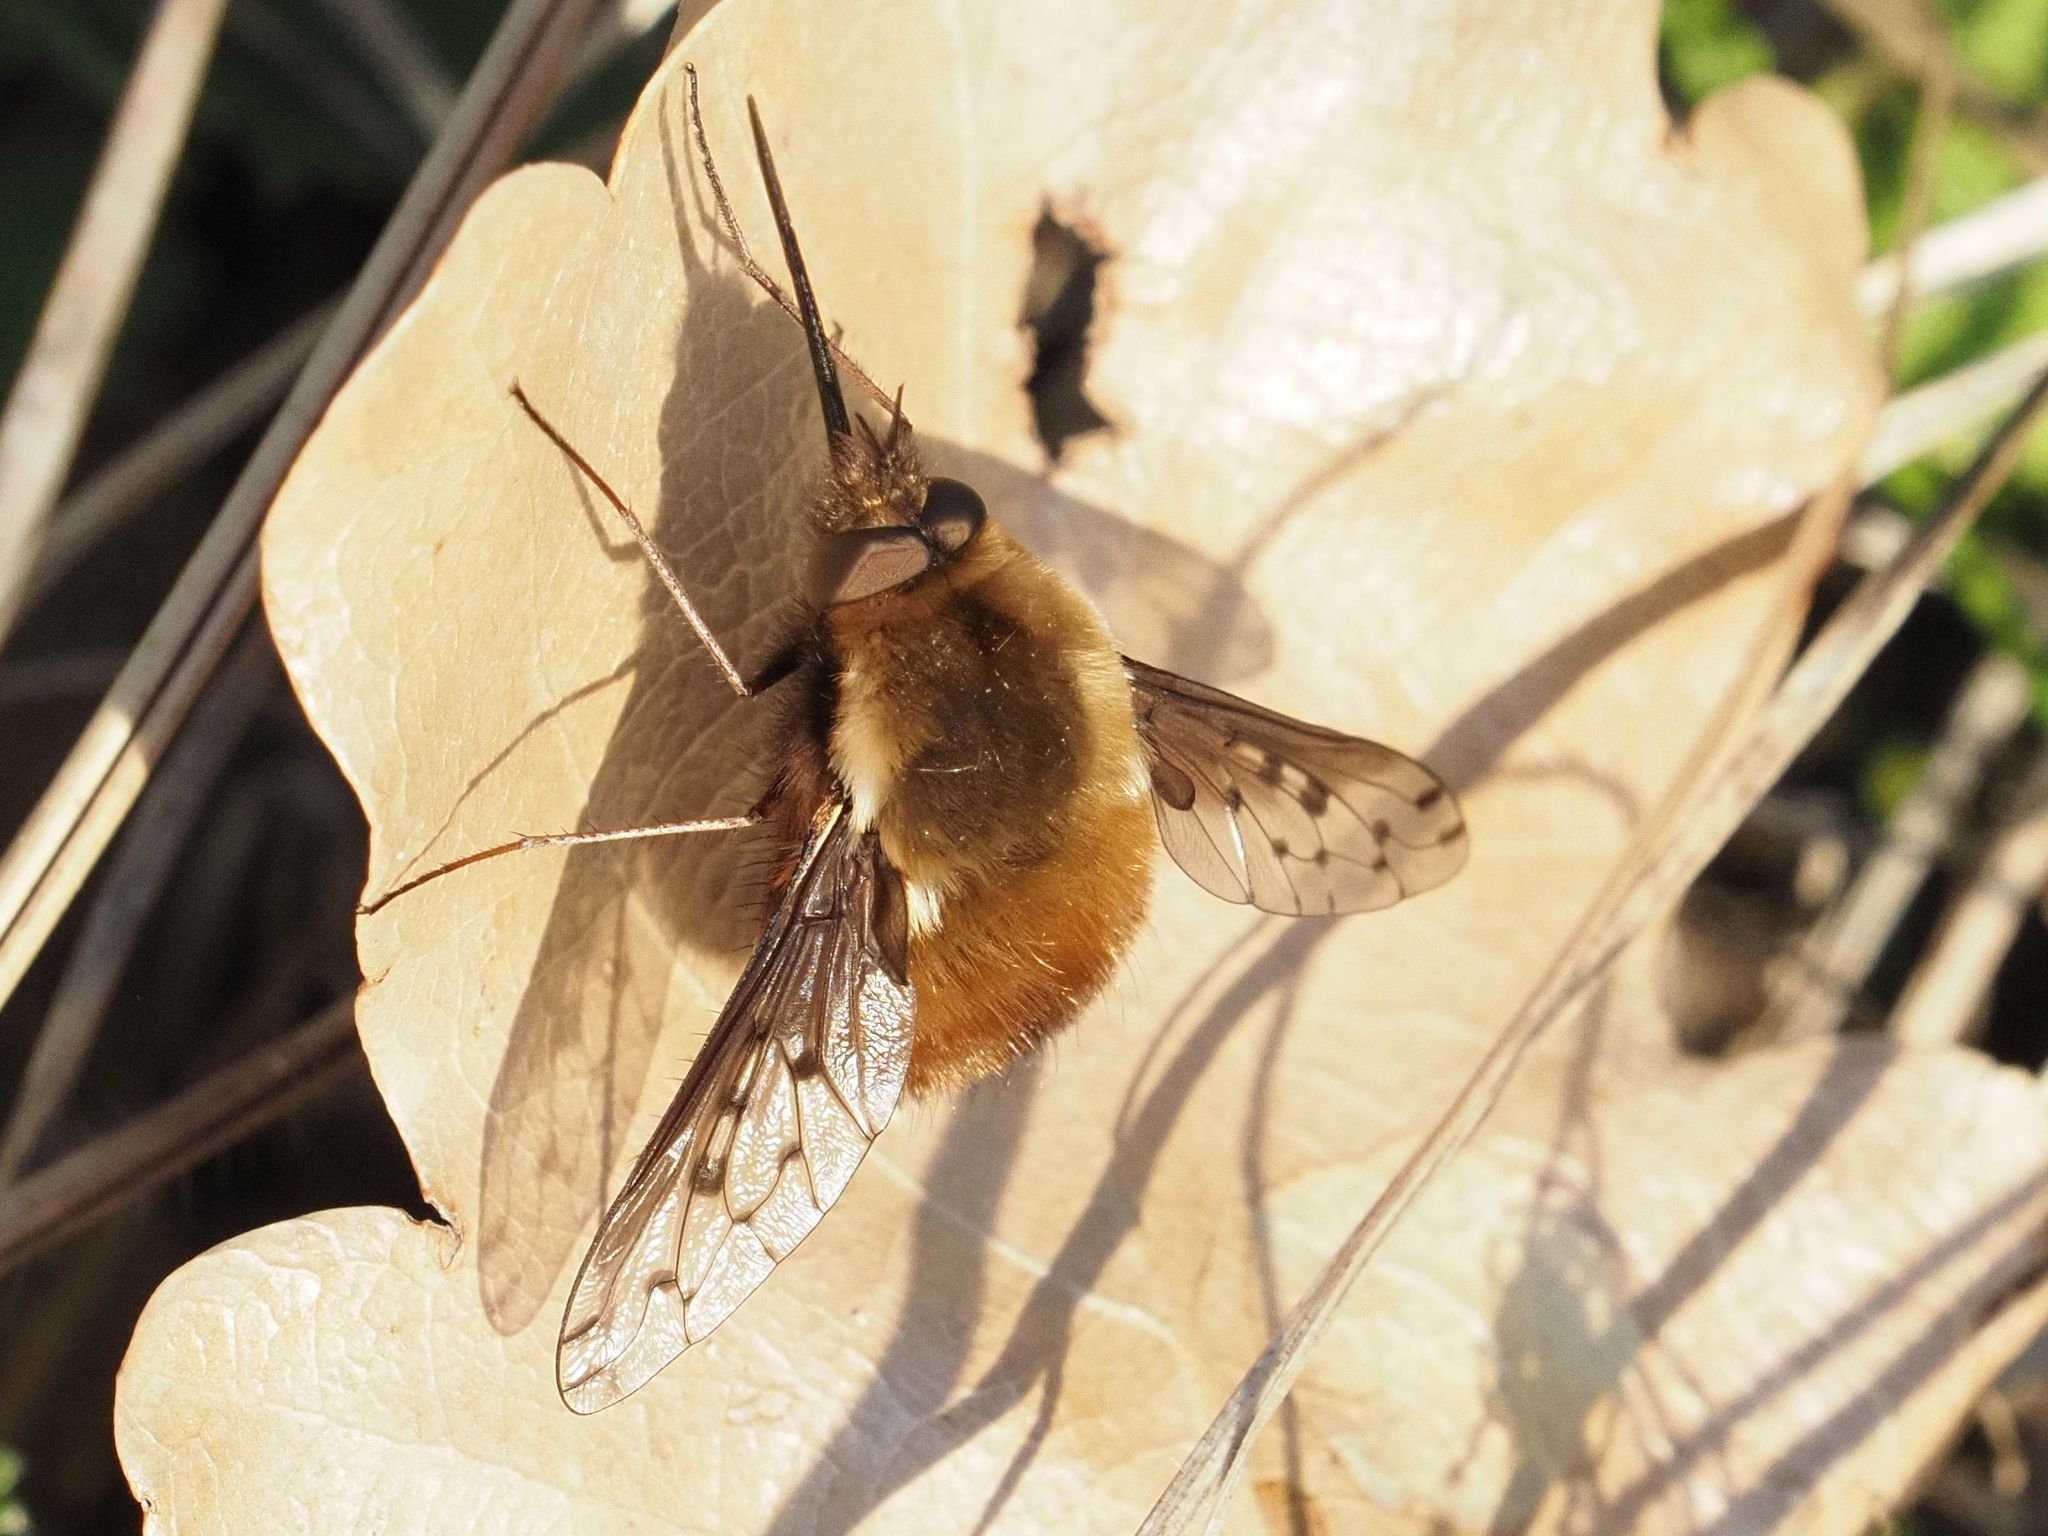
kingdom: Animalia
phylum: Arthropoda
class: Insecta
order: Diptera
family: Bombyliidae
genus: Bombylius
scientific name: Bombylius discolor
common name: Dotted bee-fly
